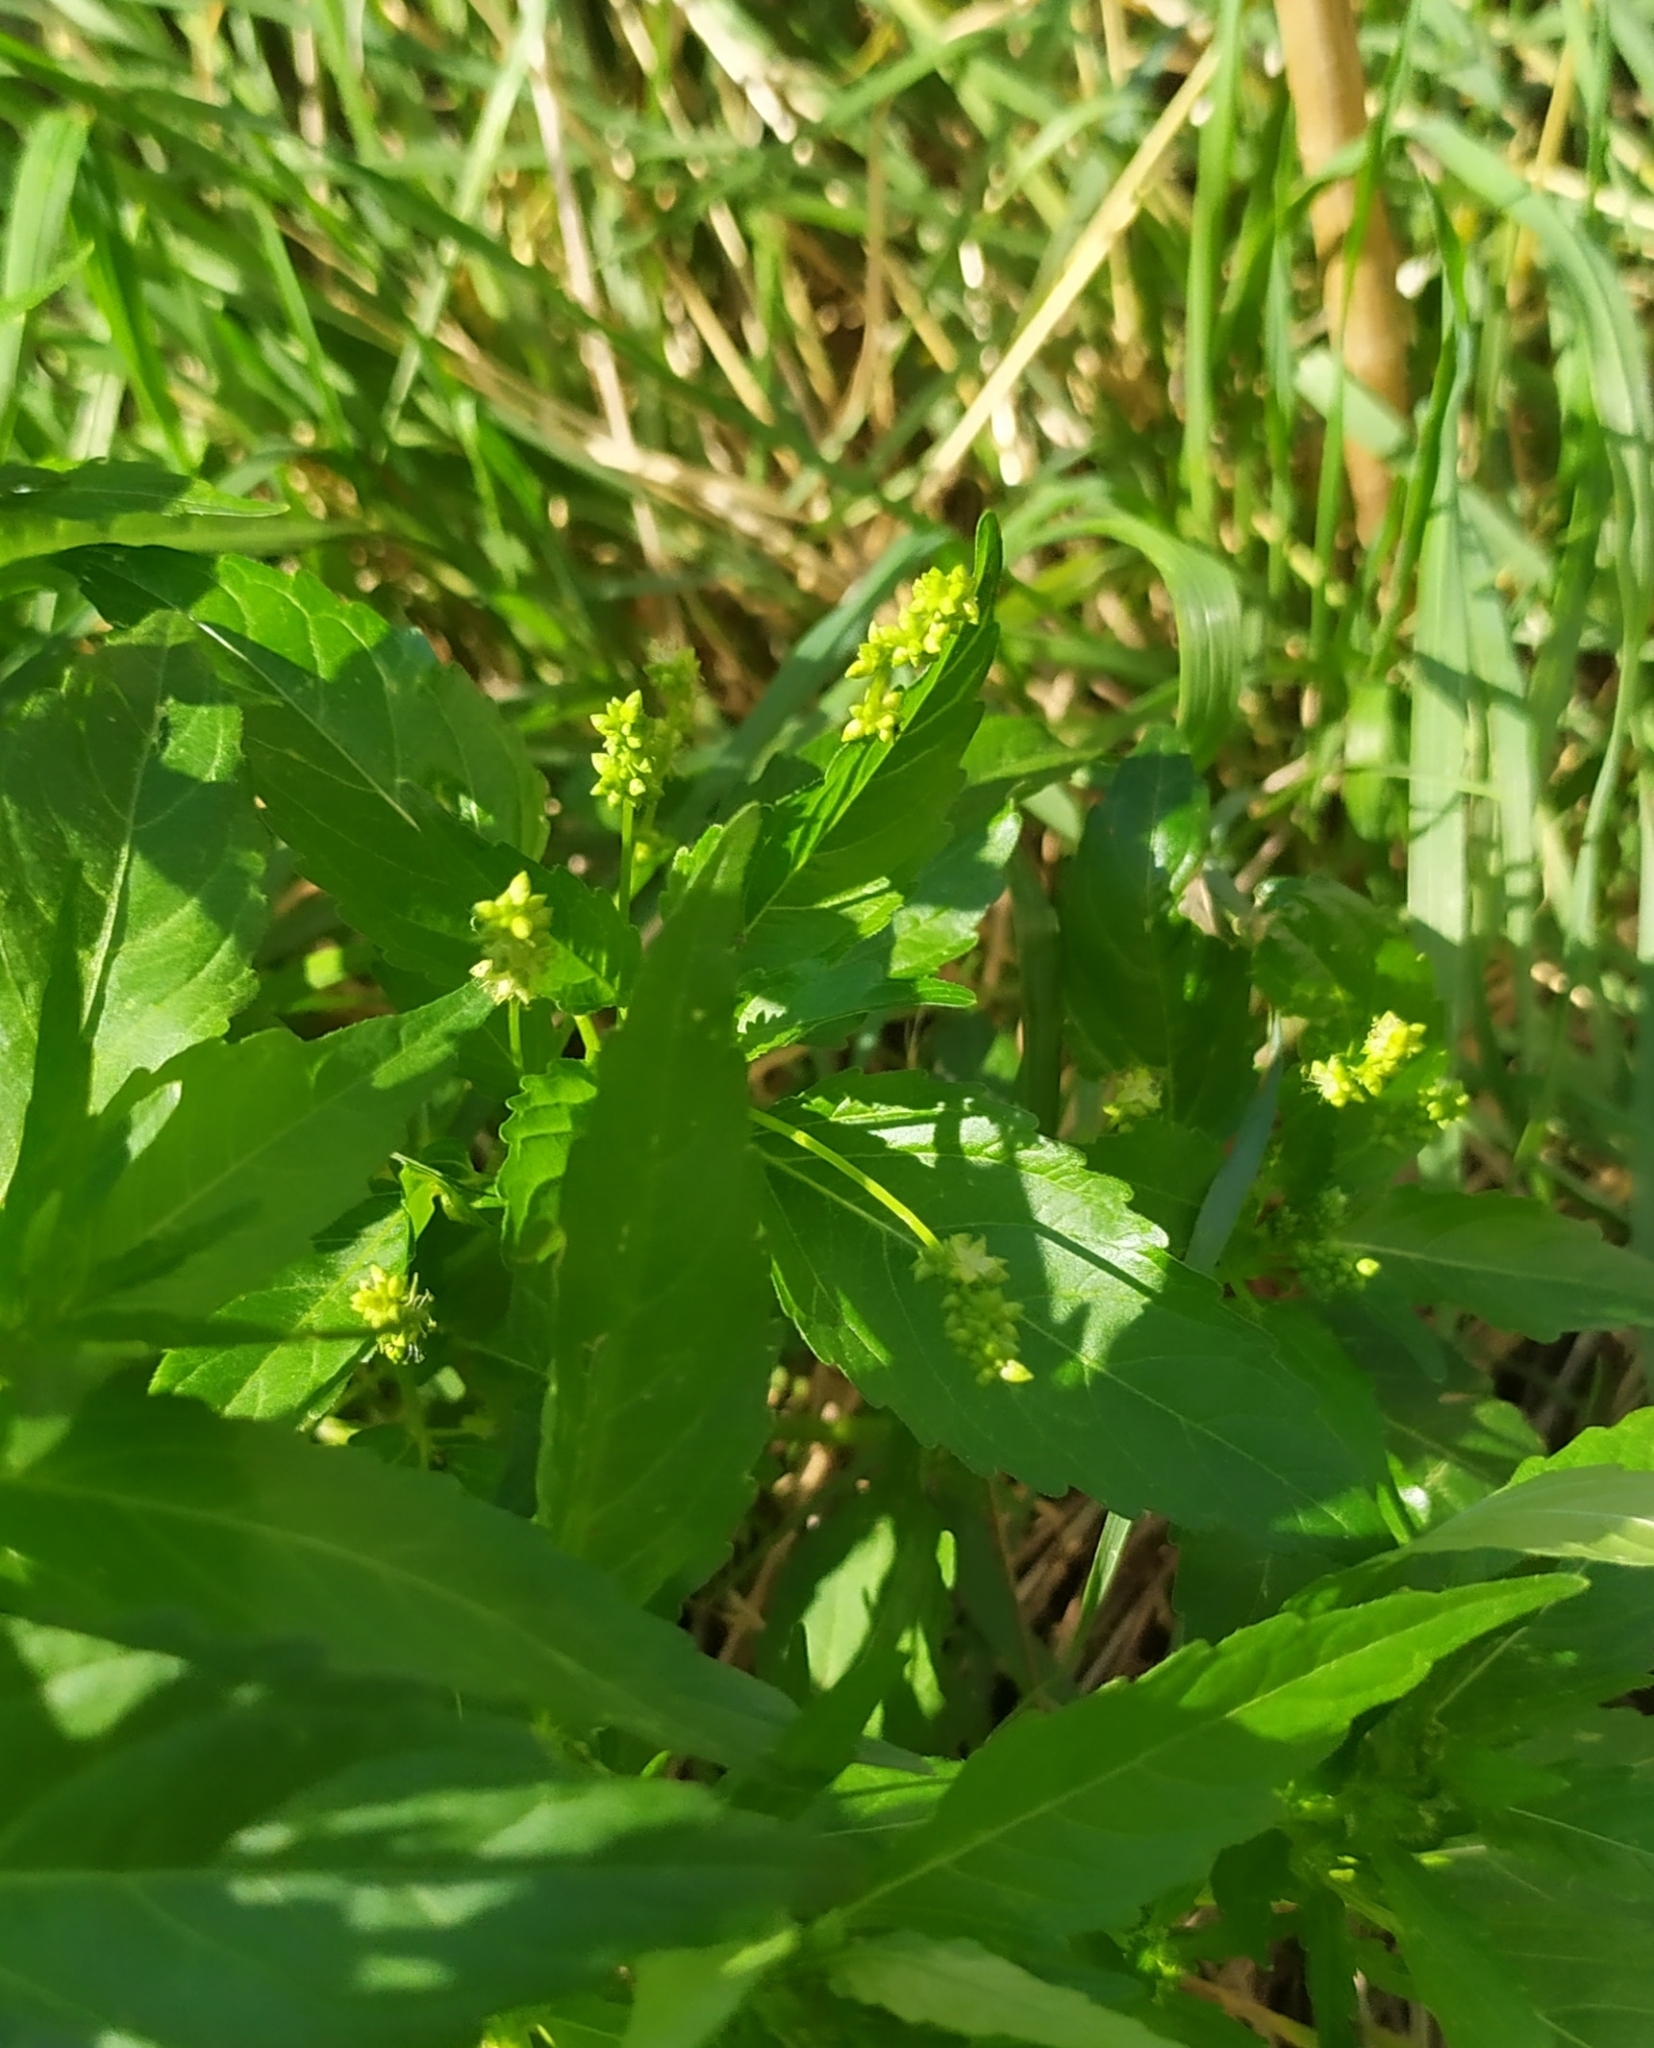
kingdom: Plantae
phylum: Tracheophyta
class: Magnoliopsida
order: Malpighiales
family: Euphorbiaceae
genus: Mercurialis
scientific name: Mercurialis annua
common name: Annual mercury
